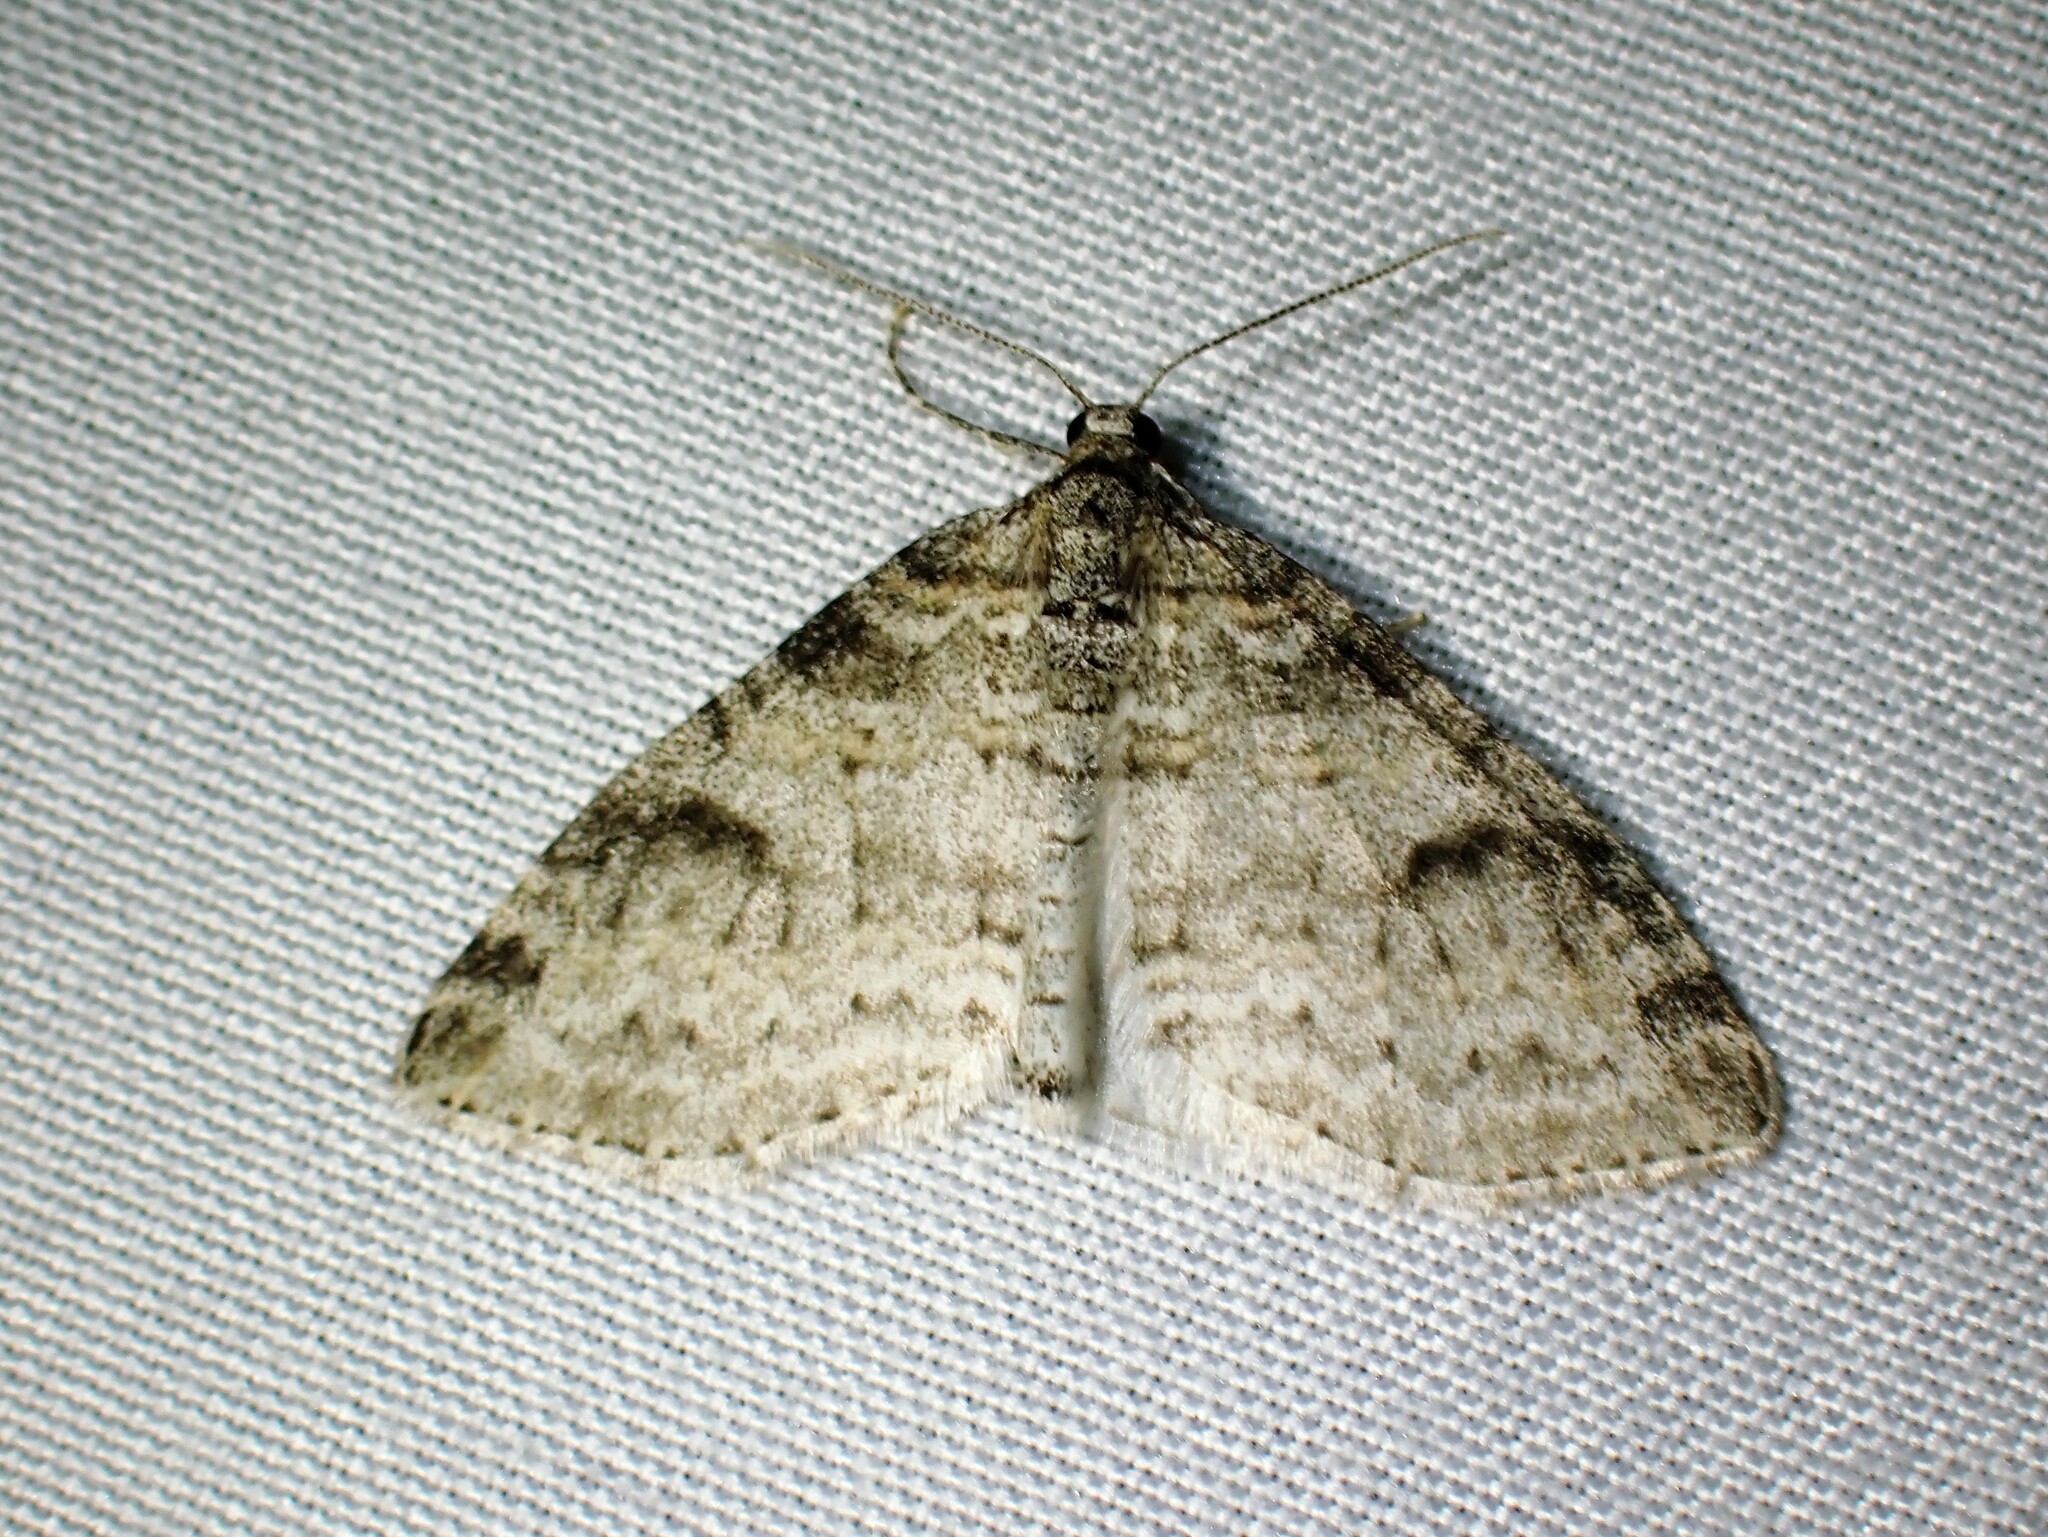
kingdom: Animalia
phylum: Arthropoda
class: Insecta
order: Lepidoptera
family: Geometridae
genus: Lobophora
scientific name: Lobophora nivigerata
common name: Powdered bigwing
